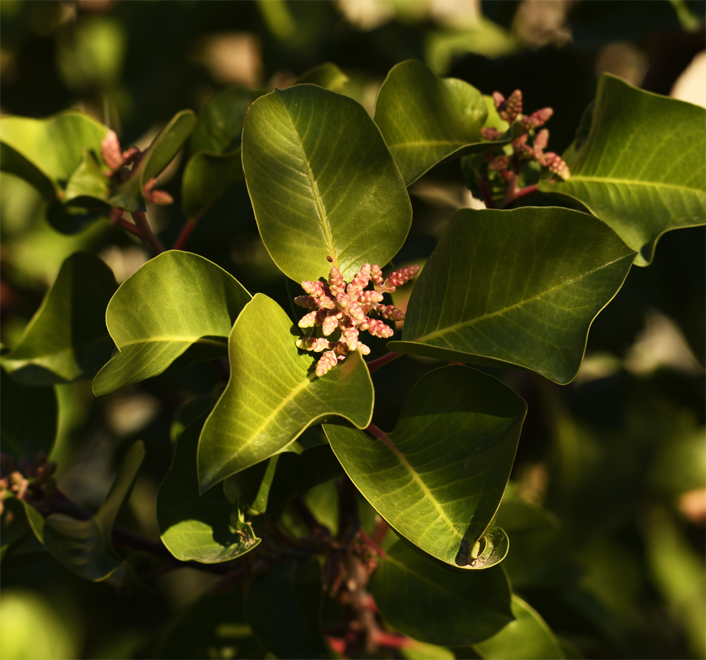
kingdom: Plantae
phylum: Tracheophyta
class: Magnoliopsida
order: Sapindales
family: Anacardiaceae
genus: Rhus
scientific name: Rhus ovata
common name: Sugar sumac
